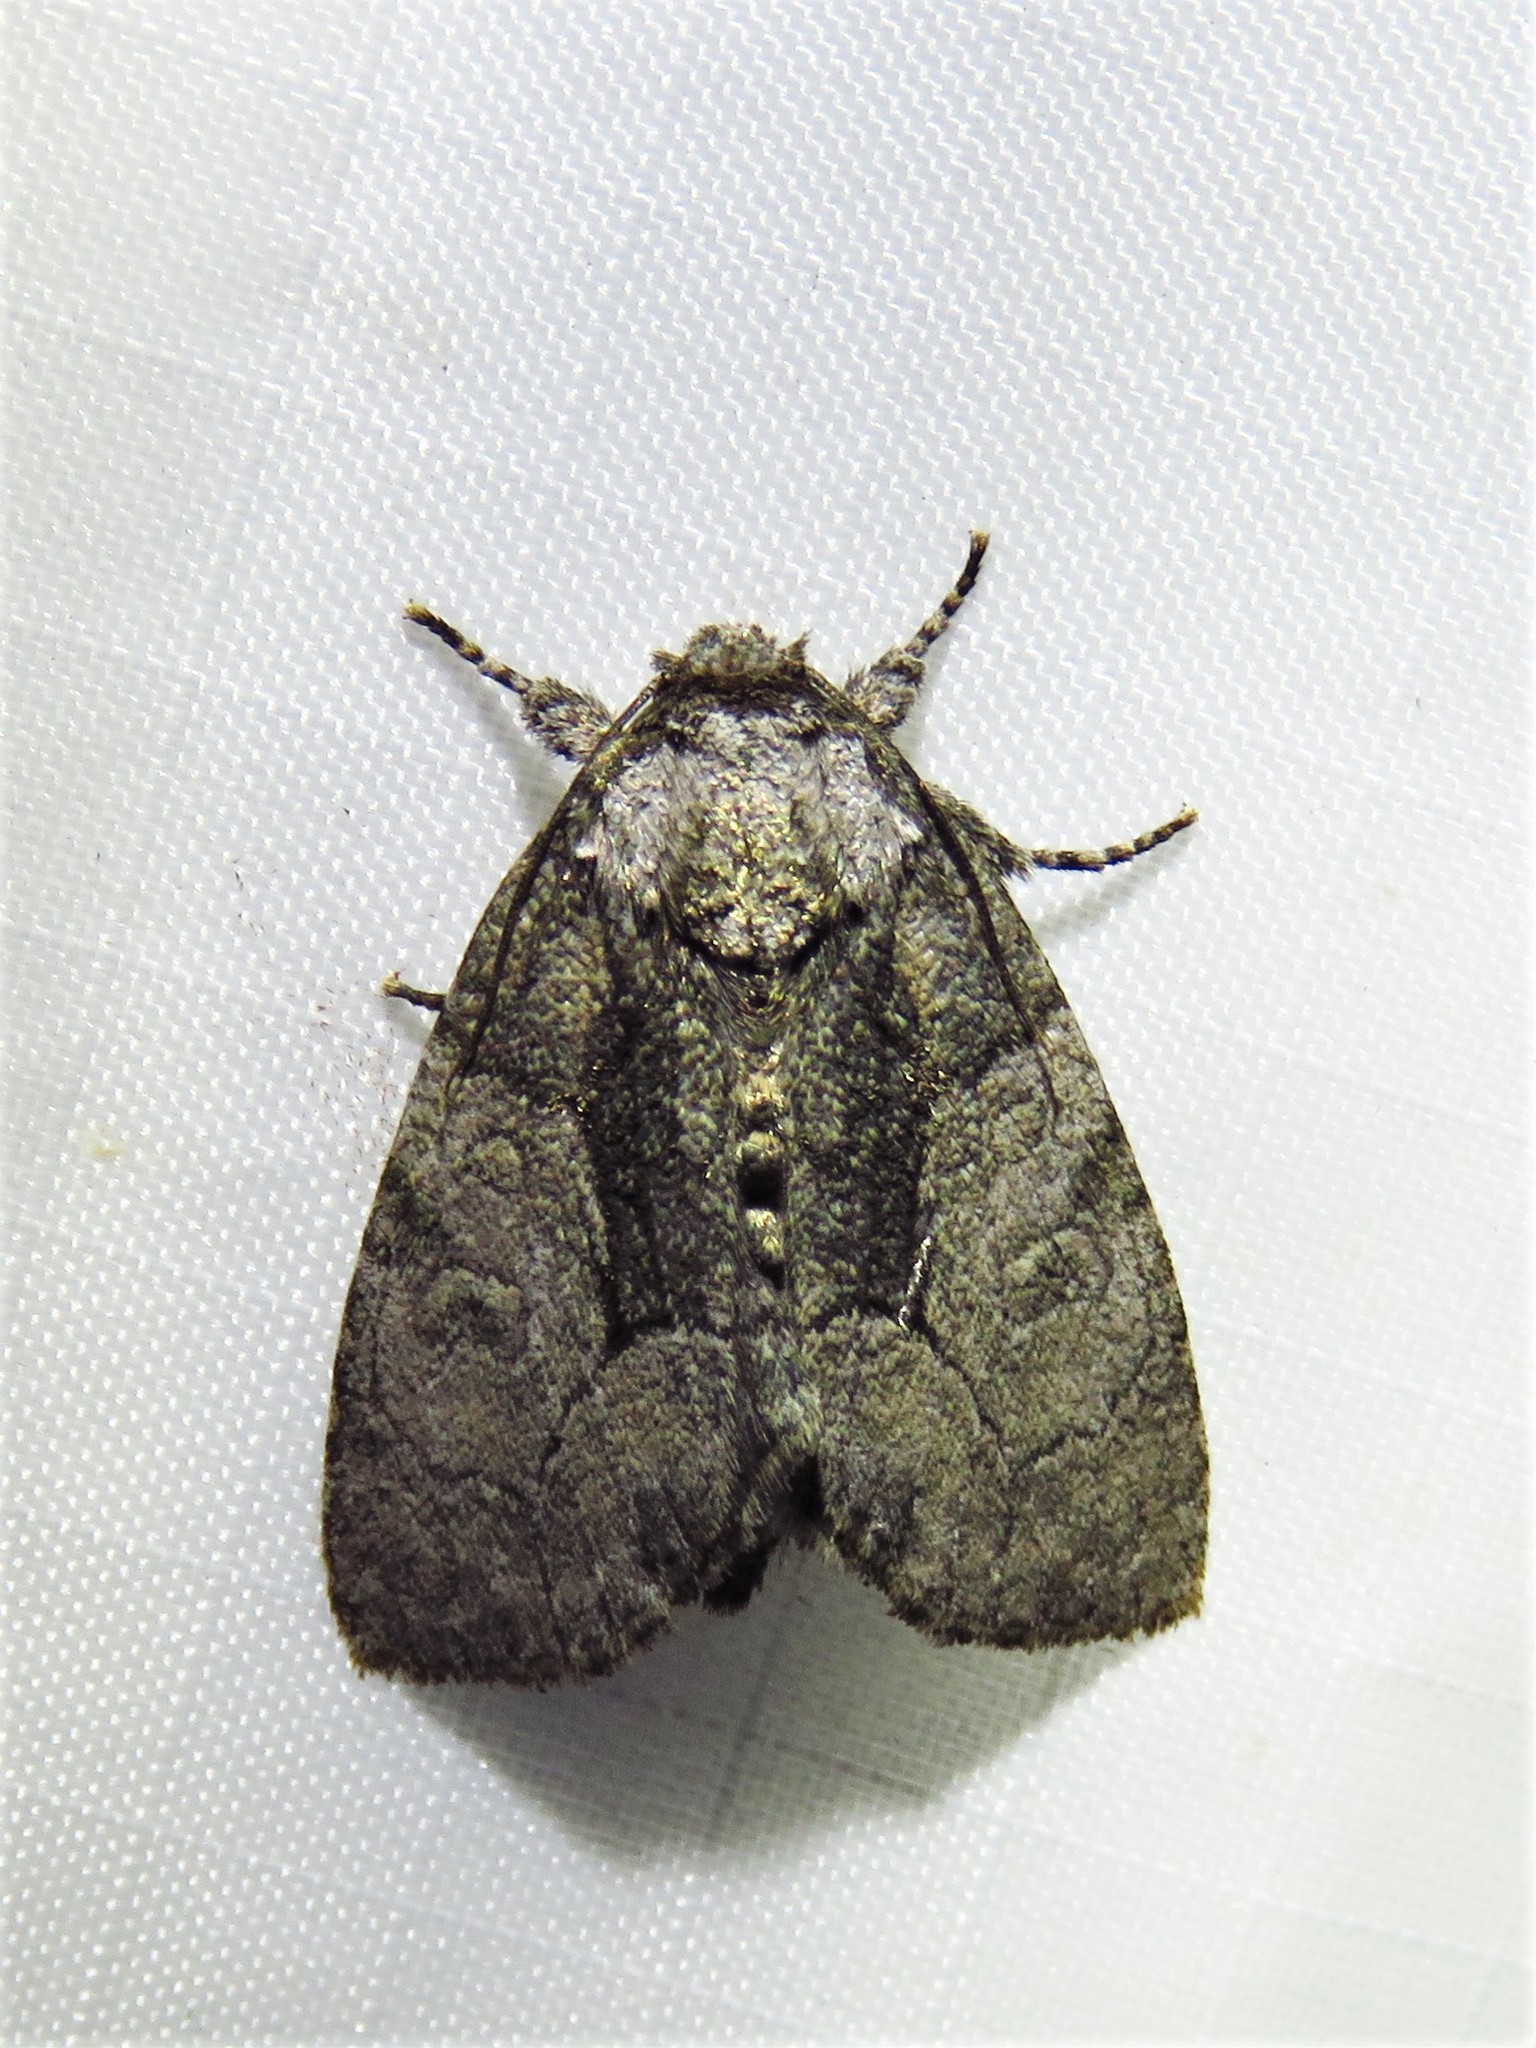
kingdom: Animalia
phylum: Arthropoda
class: Insecta
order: Lepidoptera
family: Noctuidae
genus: Raphia
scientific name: Raphia frater
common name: Brother
